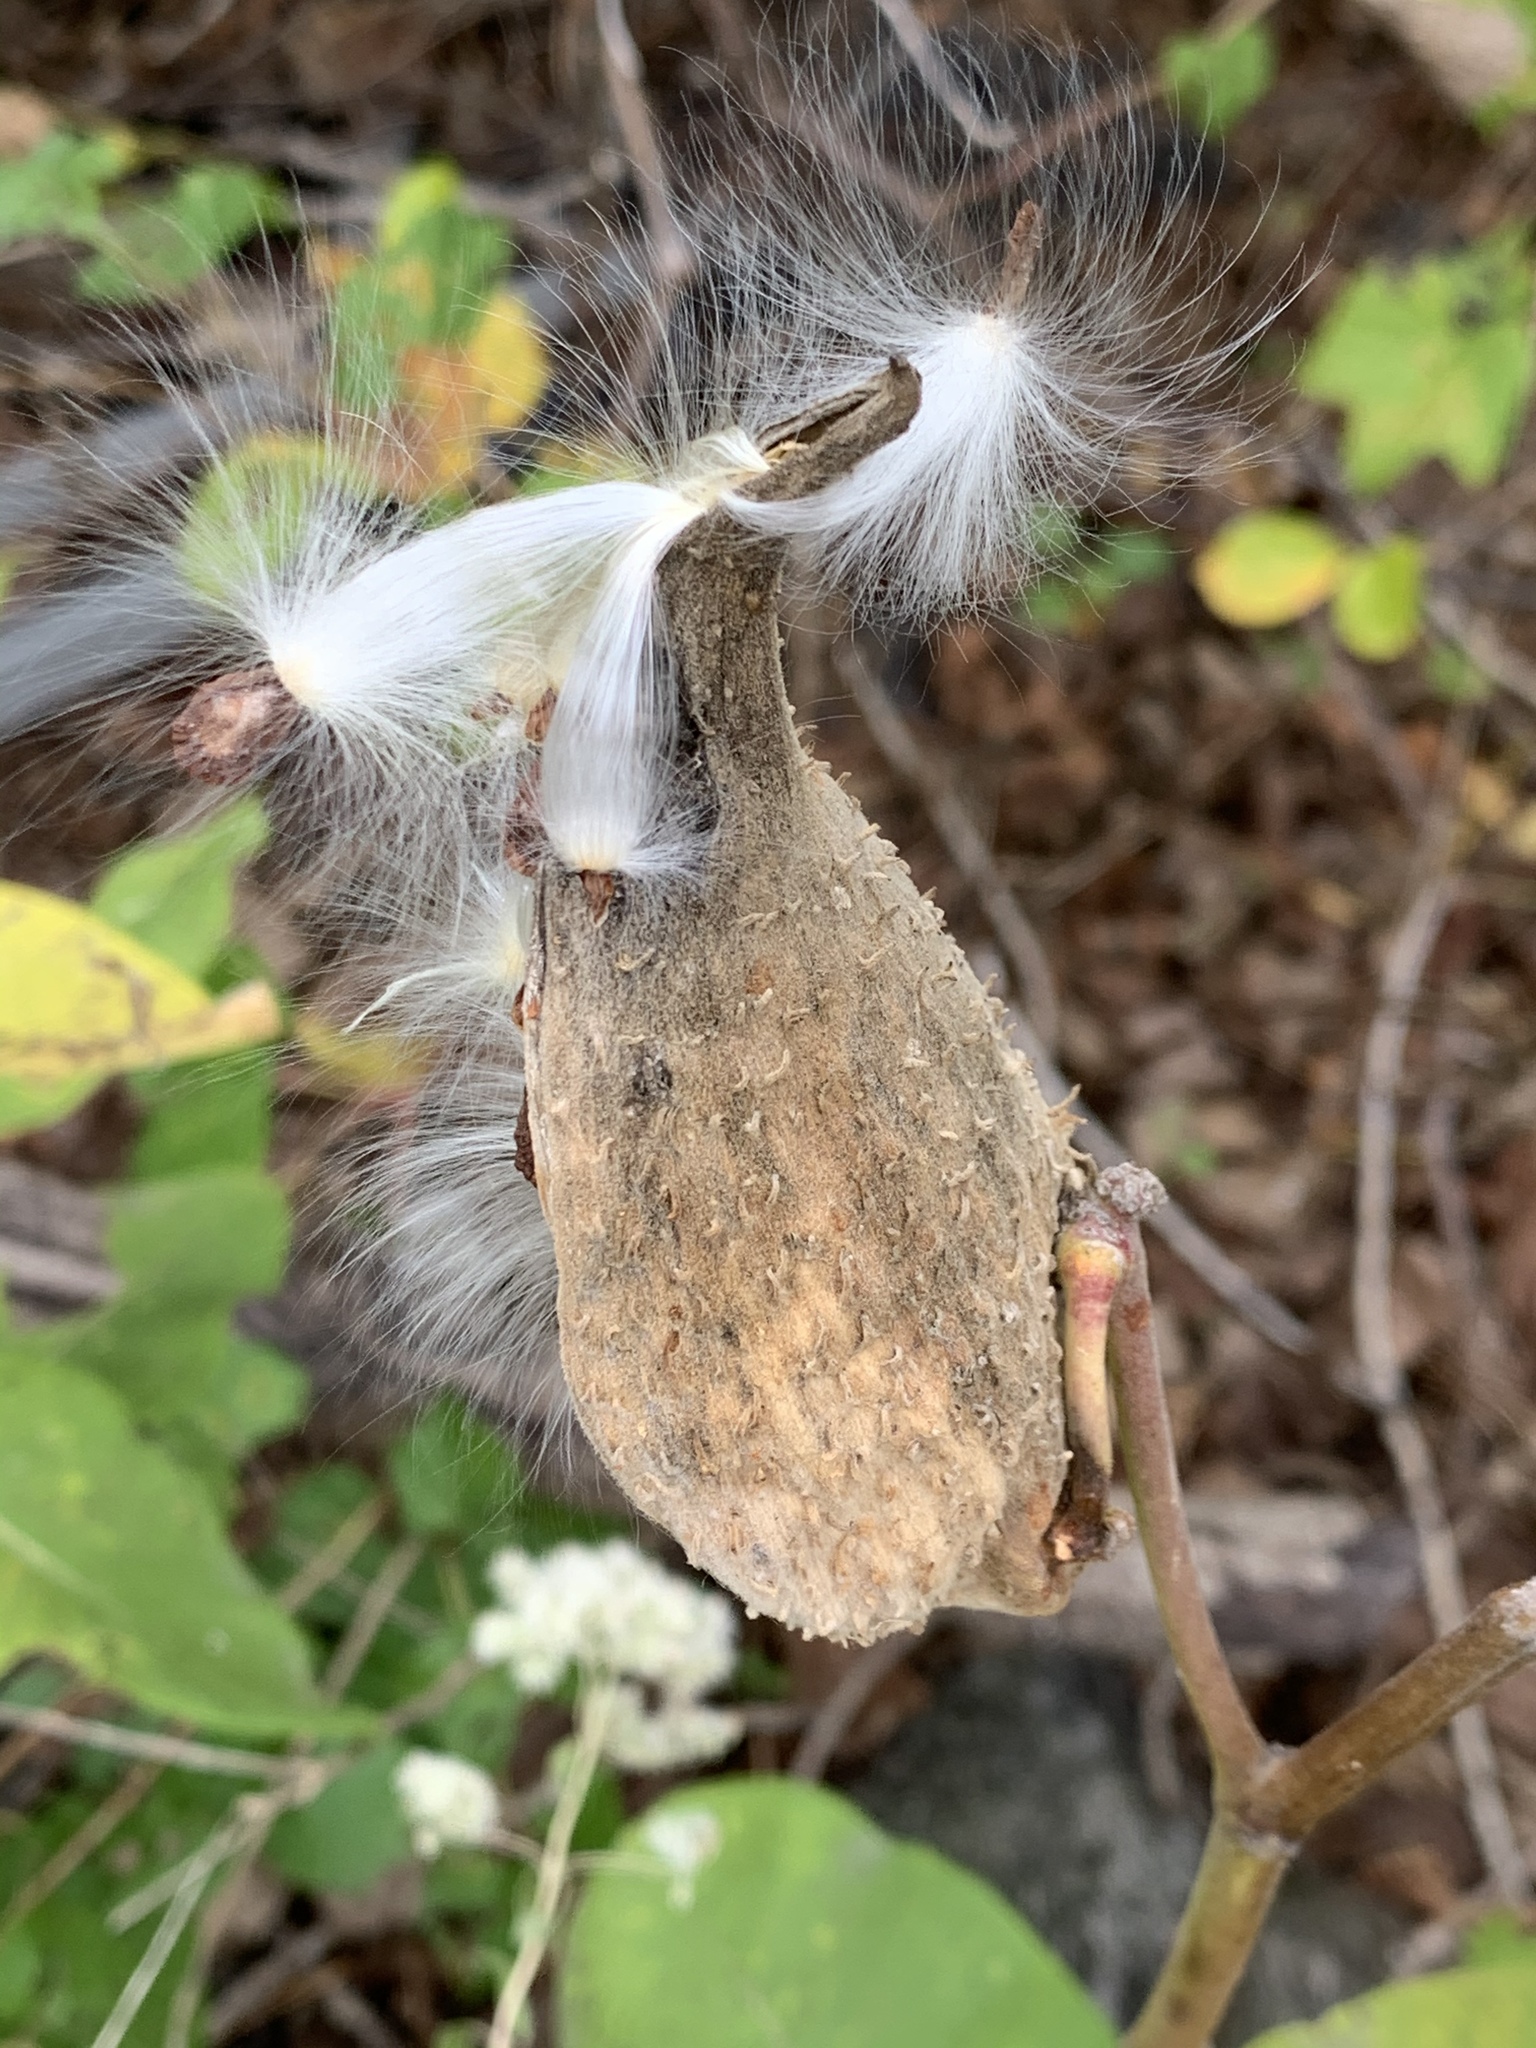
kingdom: Plantae
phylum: Tracheophyta
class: Magnoliopsida
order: Gentianales
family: Apocynaceae
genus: Asclepias
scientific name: Asclepias syriaca
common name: Common milkweed
